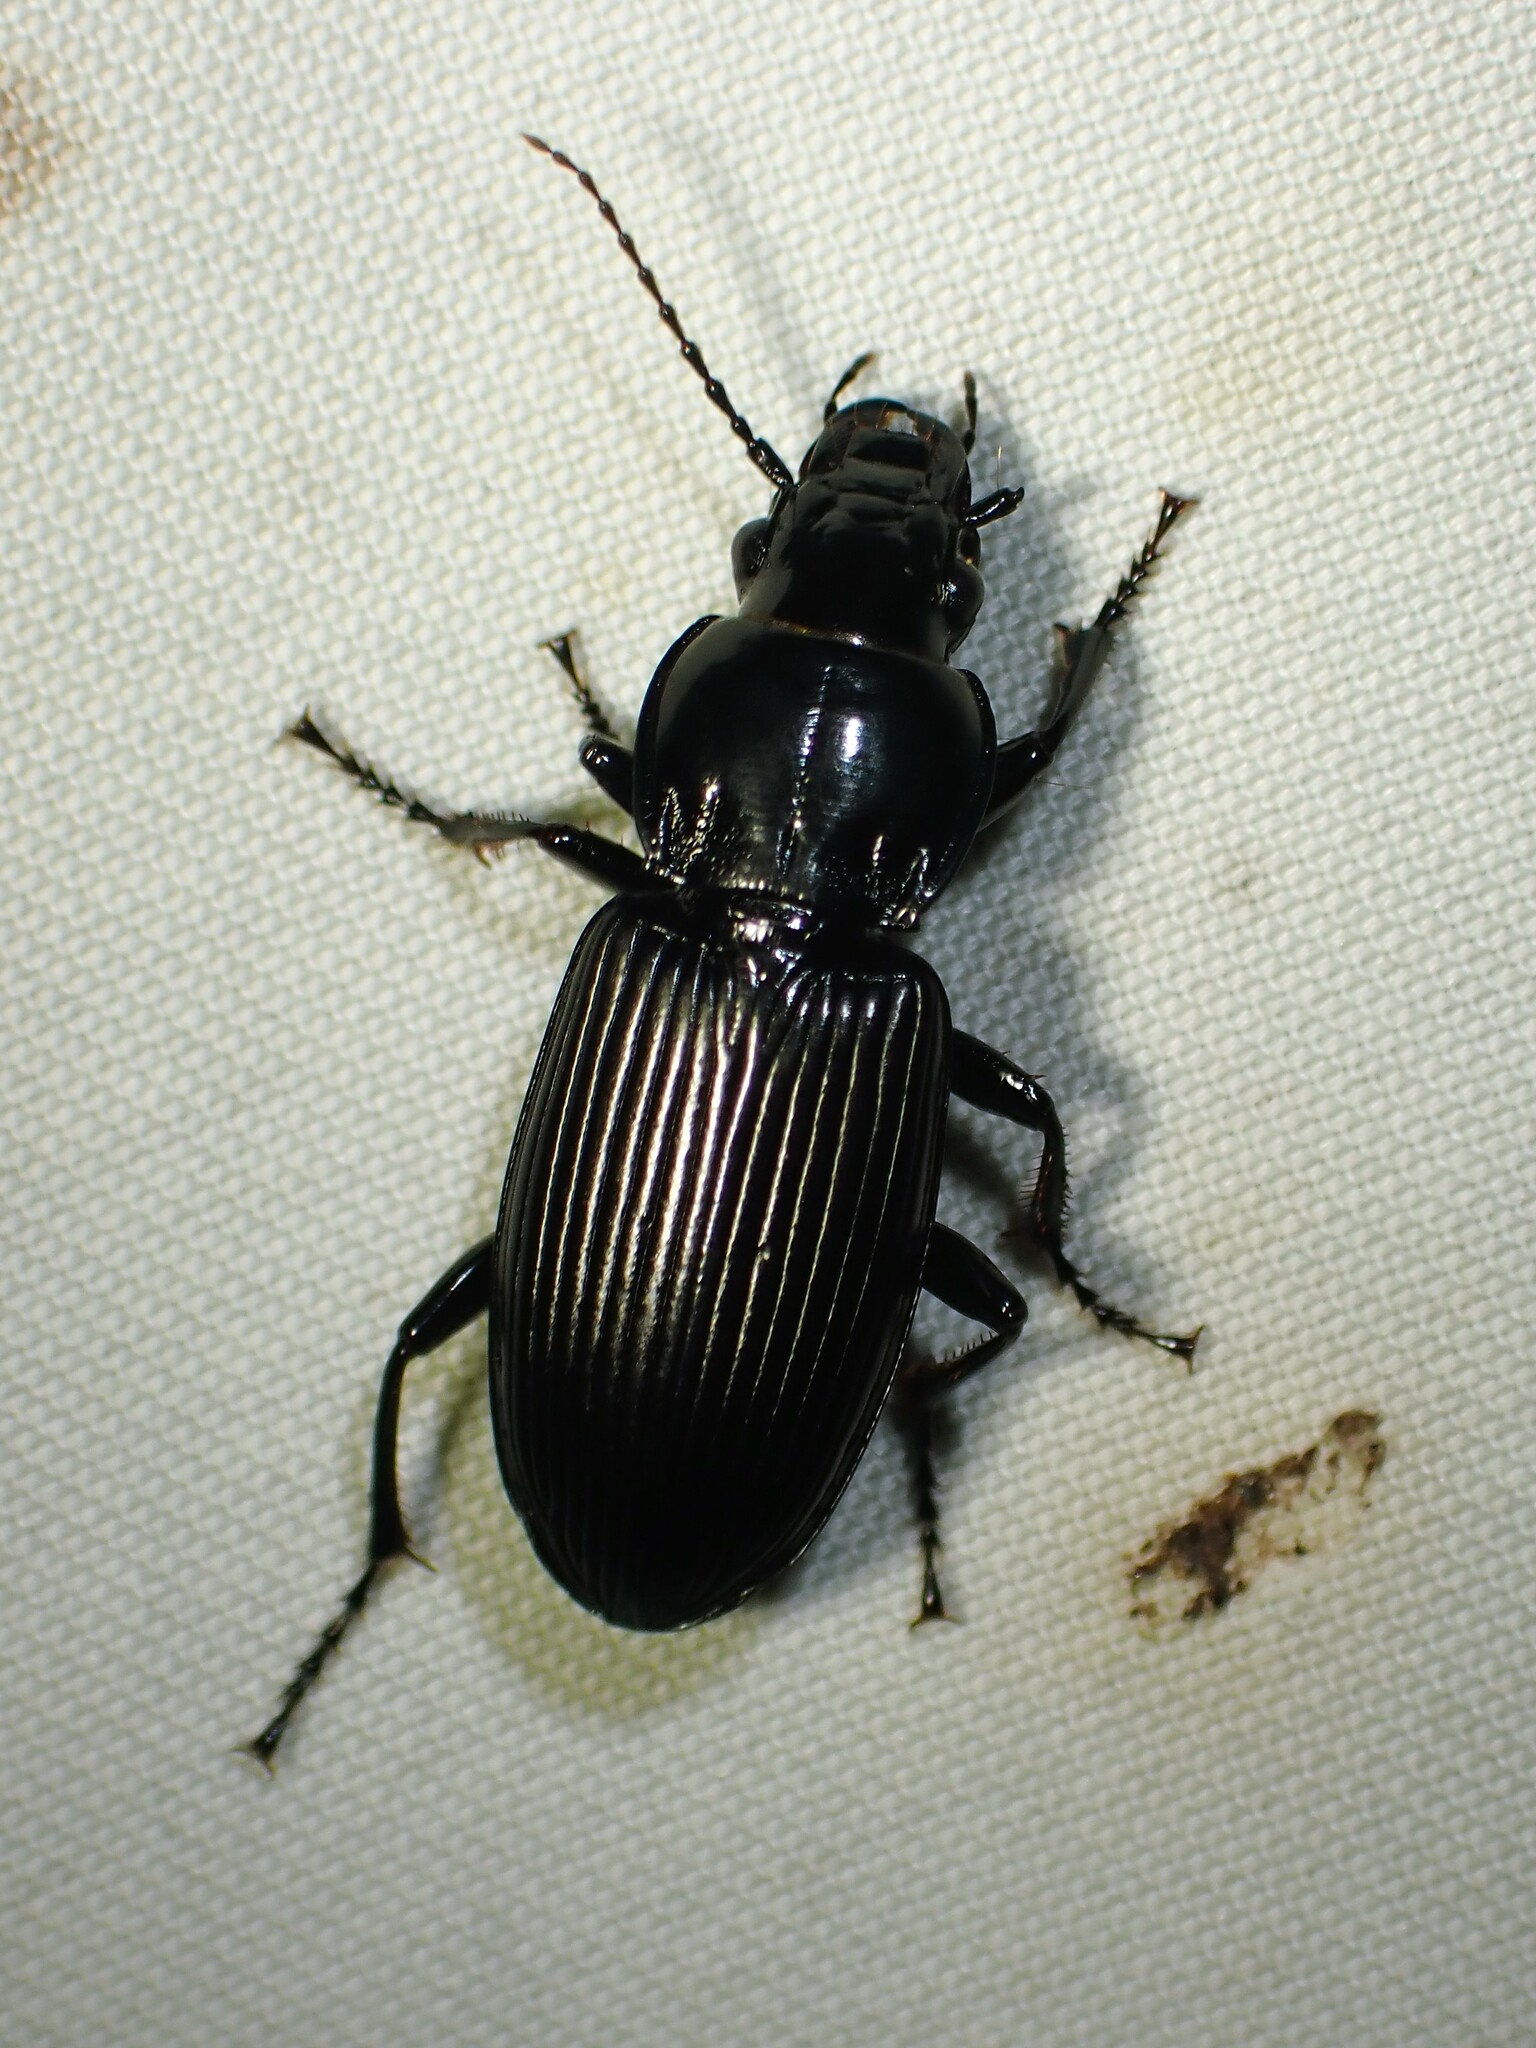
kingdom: Animalia
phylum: Arthropoda
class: Insecta
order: Coleoptera
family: Carabidae
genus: Pterostichus
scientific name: Pterostichus melanarius
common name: European dark harp ground beetle
